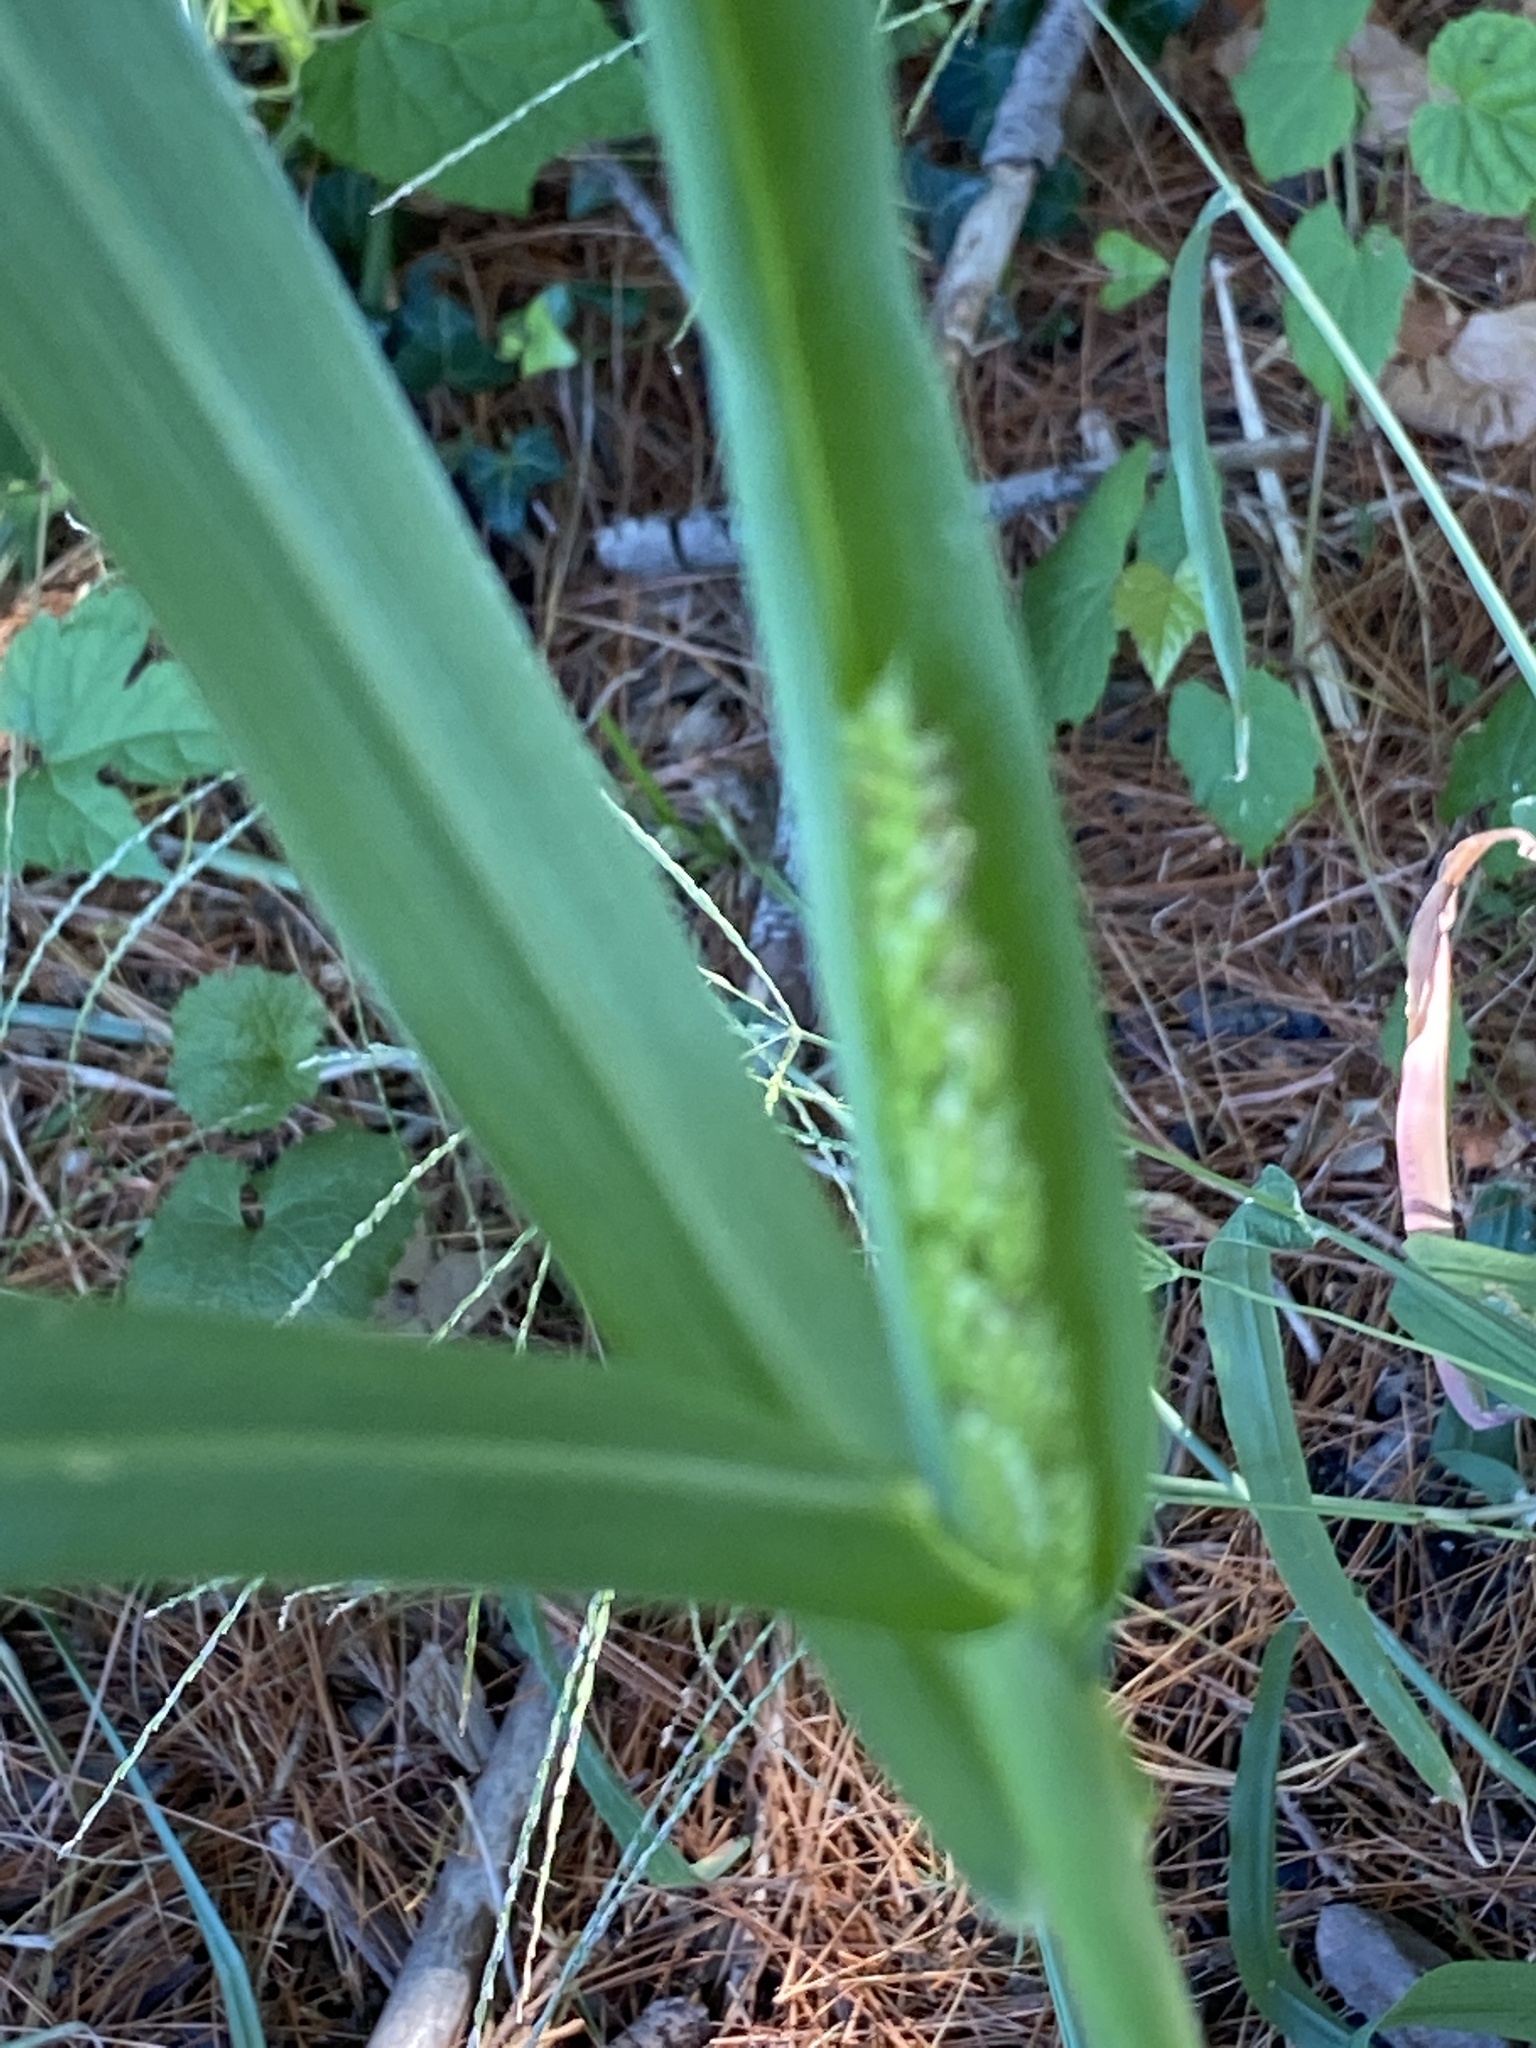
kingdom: Plantae
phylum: Tracheophyta
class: Liliopsida
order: Poales
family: Poaceae
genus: Echinochloa
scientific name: Echinochloa crus-galli
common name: Cockspur
